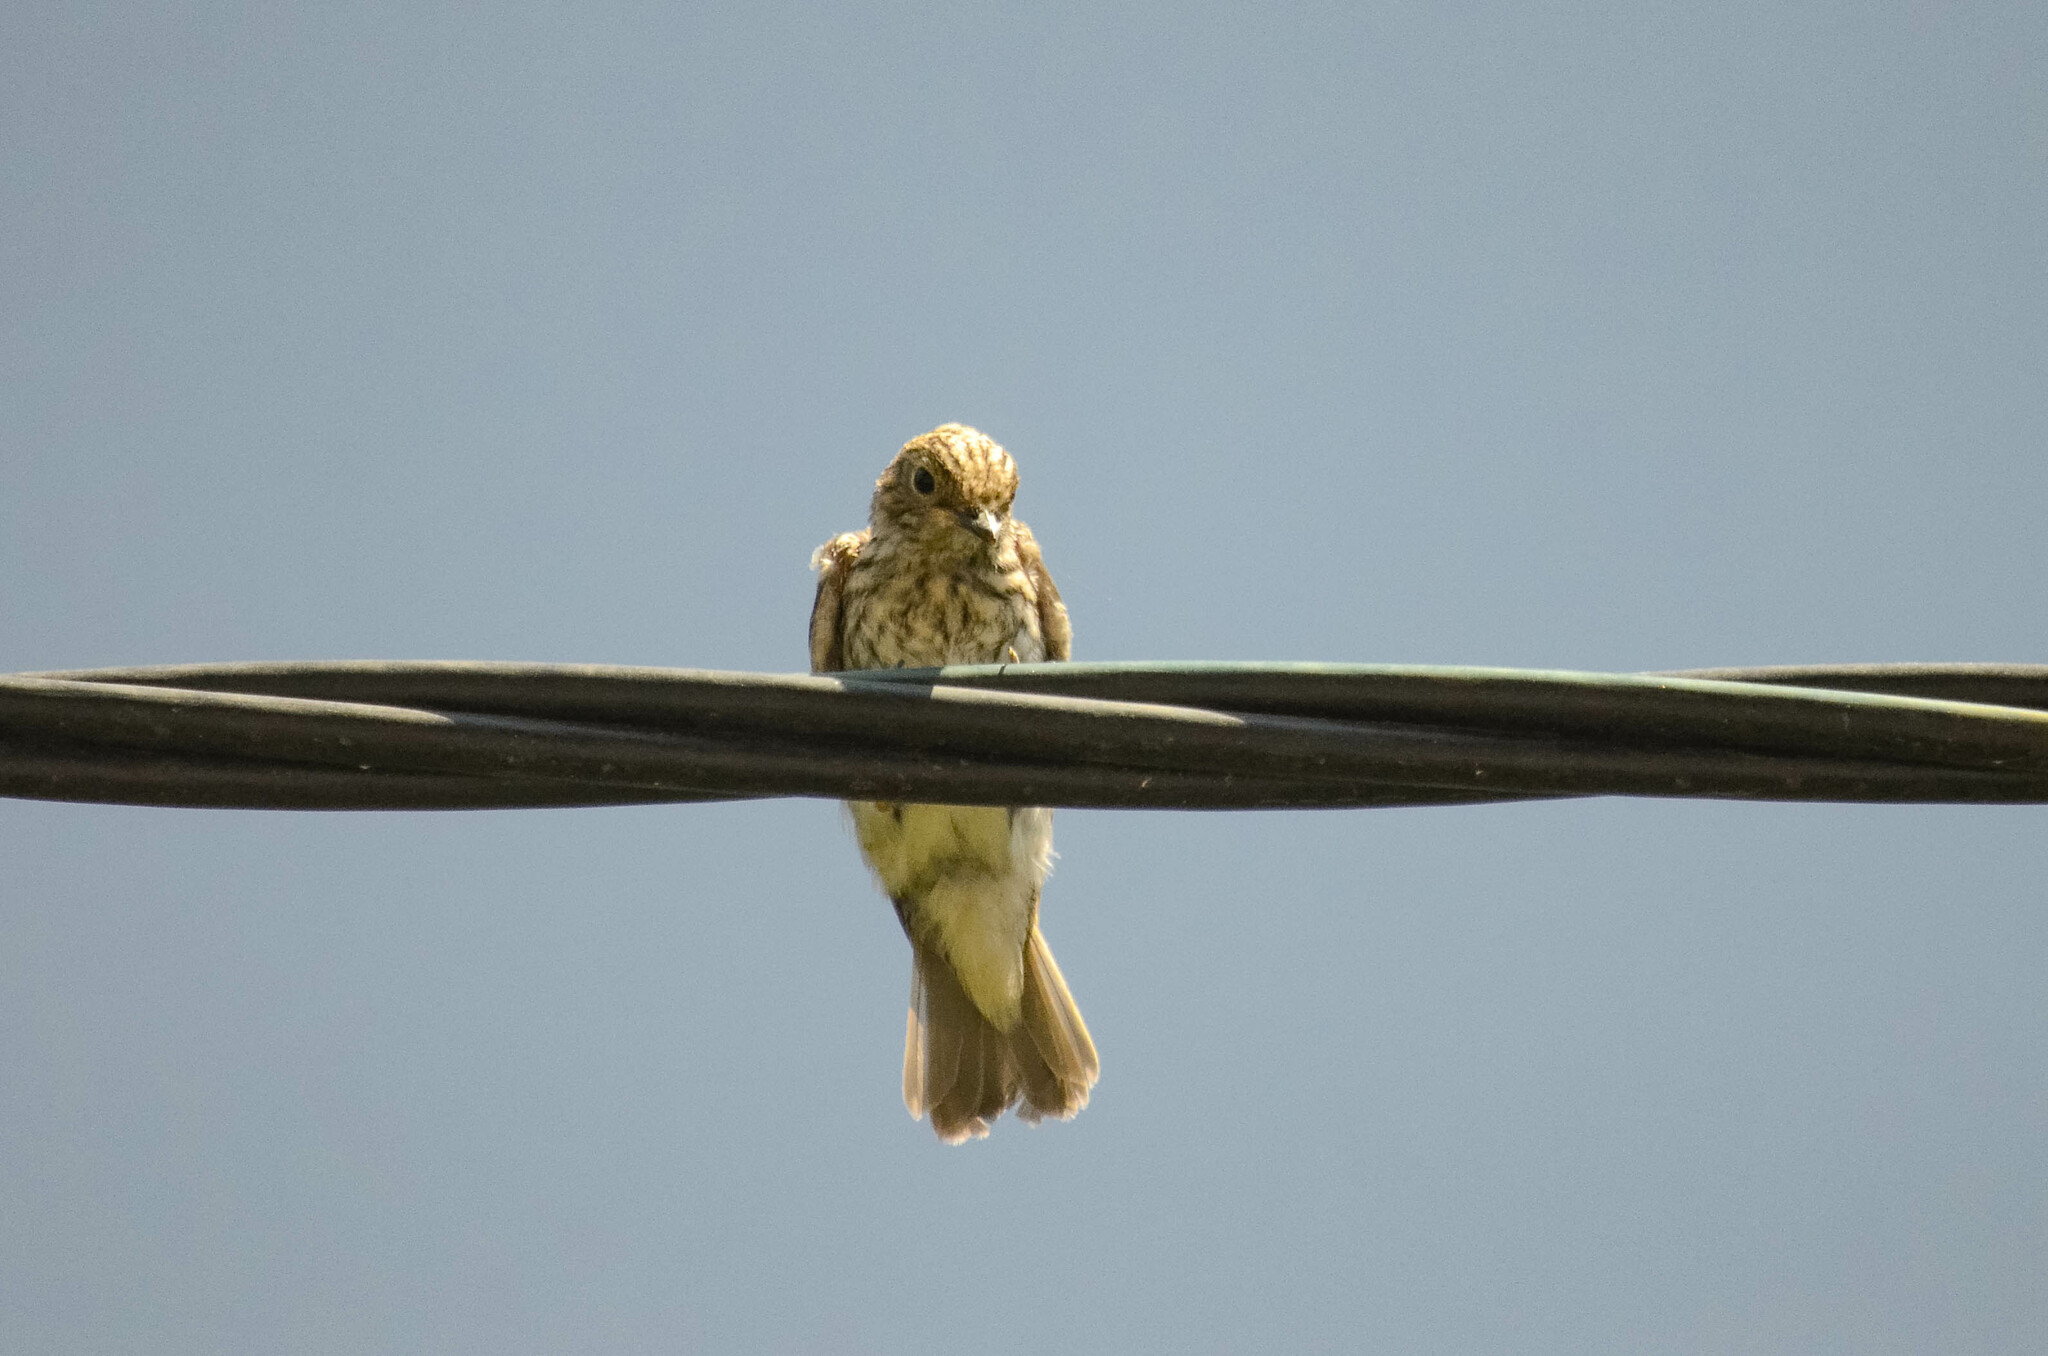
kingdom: Animalia
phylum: Chordata
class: Aves
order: Passeriformes
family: Muscicapidae
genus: Muscicapa
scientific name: Muscicapa striata
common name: Spotted flycatcher
